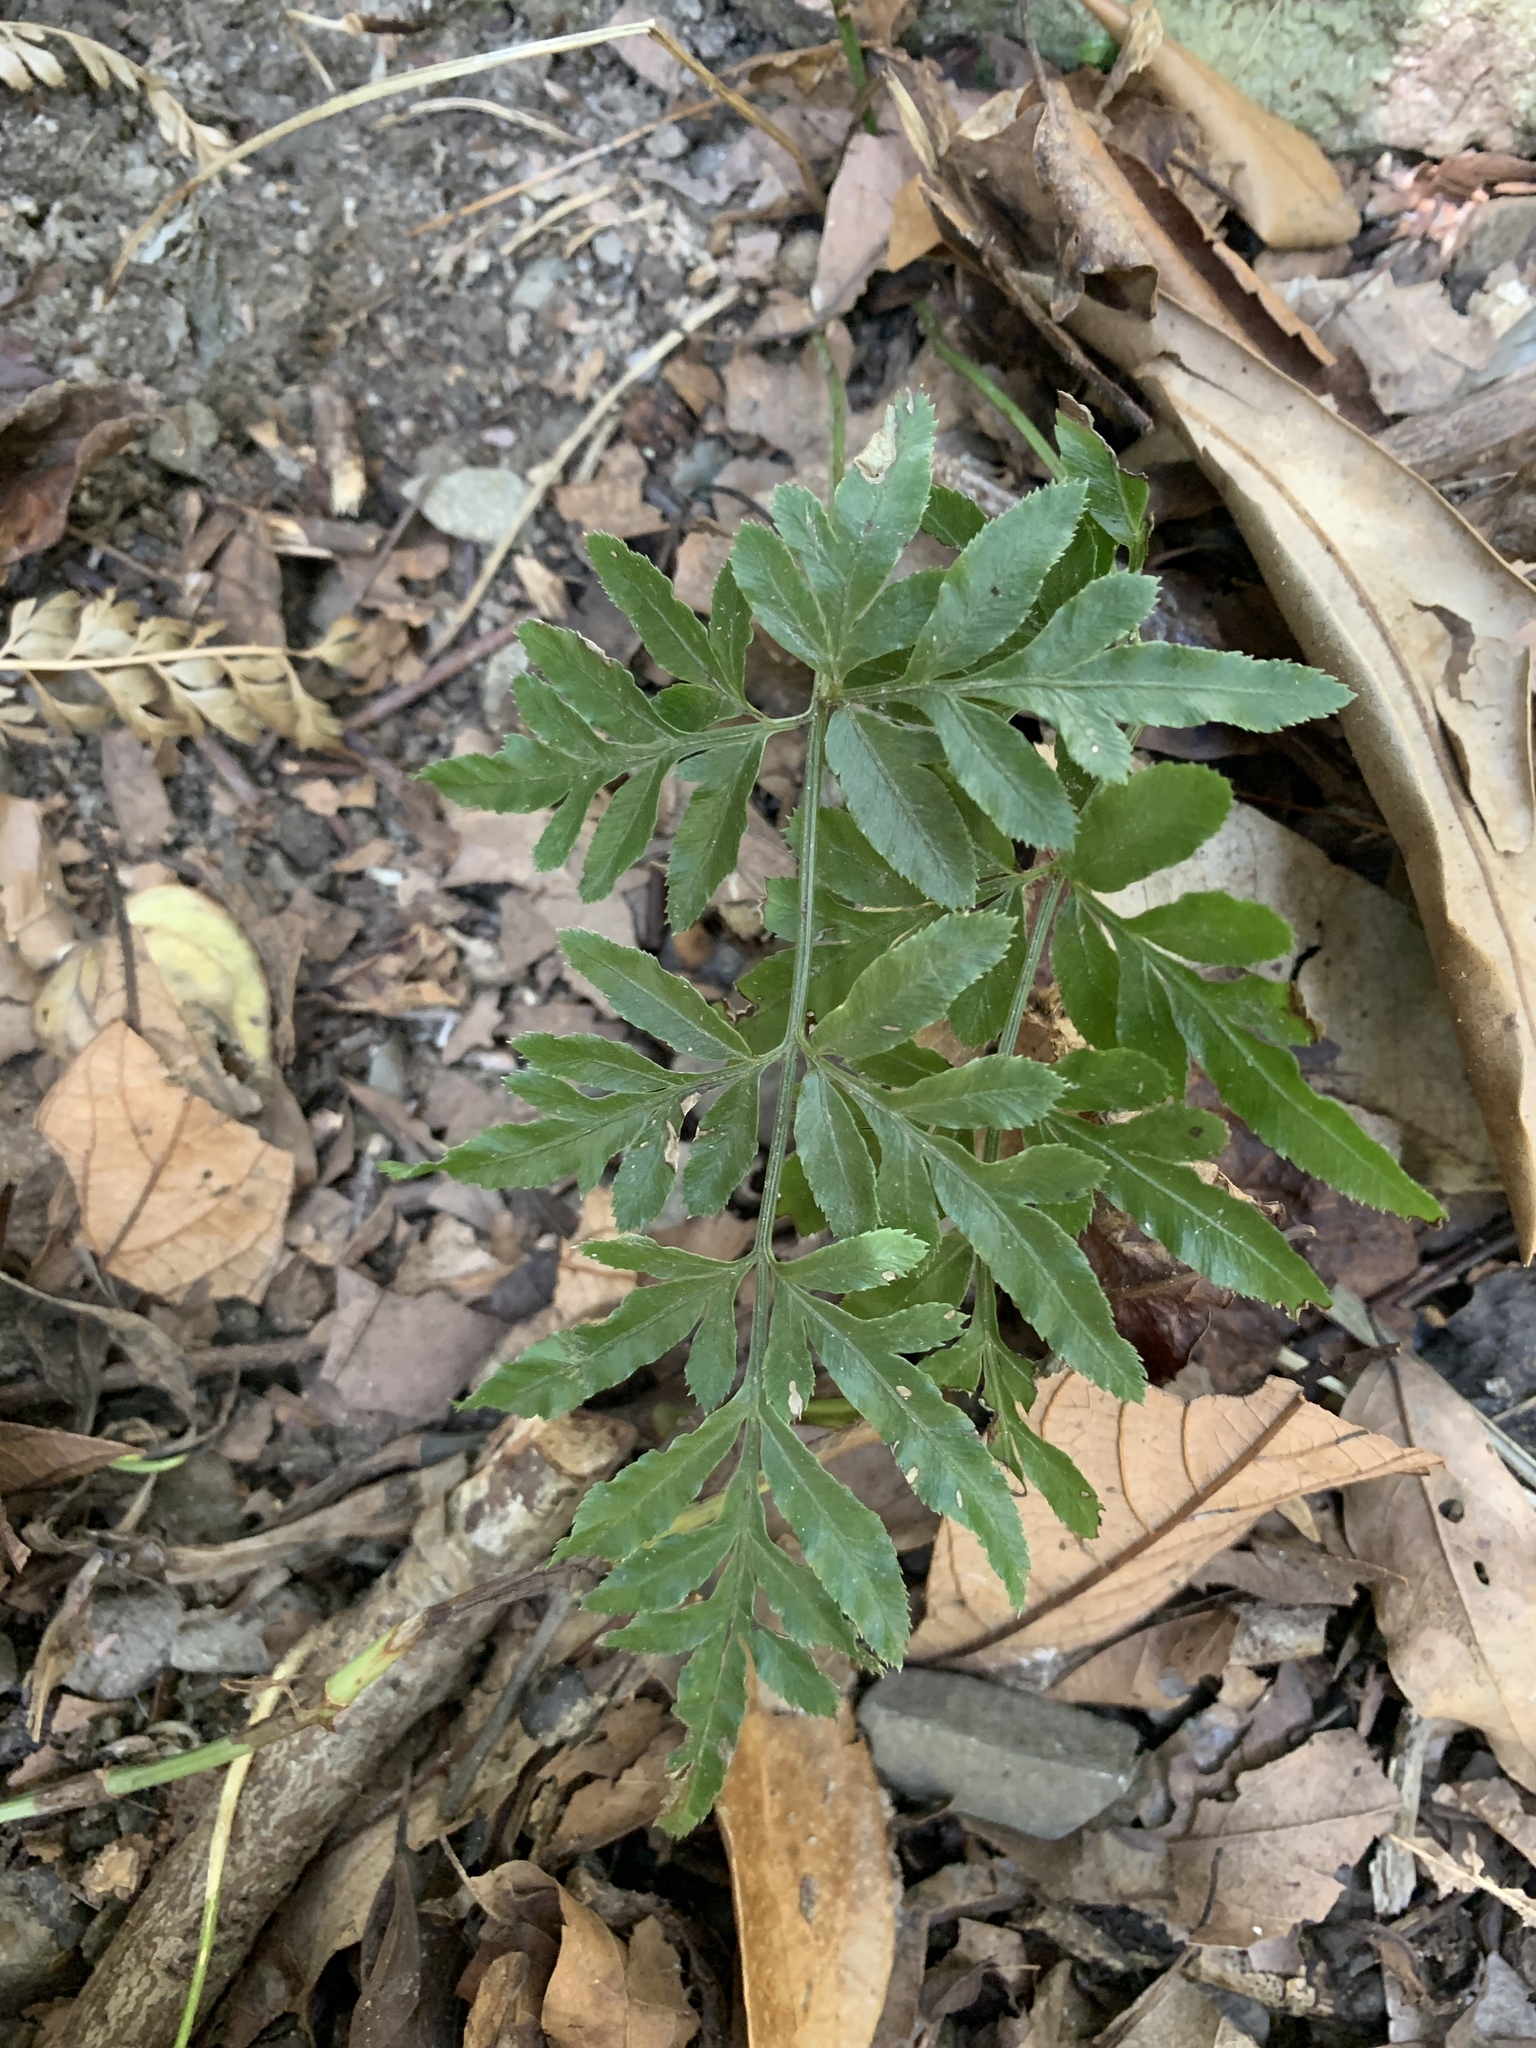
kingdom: Plantae
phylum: Tracheophyta
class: Polypodiopsida
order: Polypodiales
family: Pteridaceae
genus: Pteris
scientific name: Pteris ensiformis
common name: Sword brake
